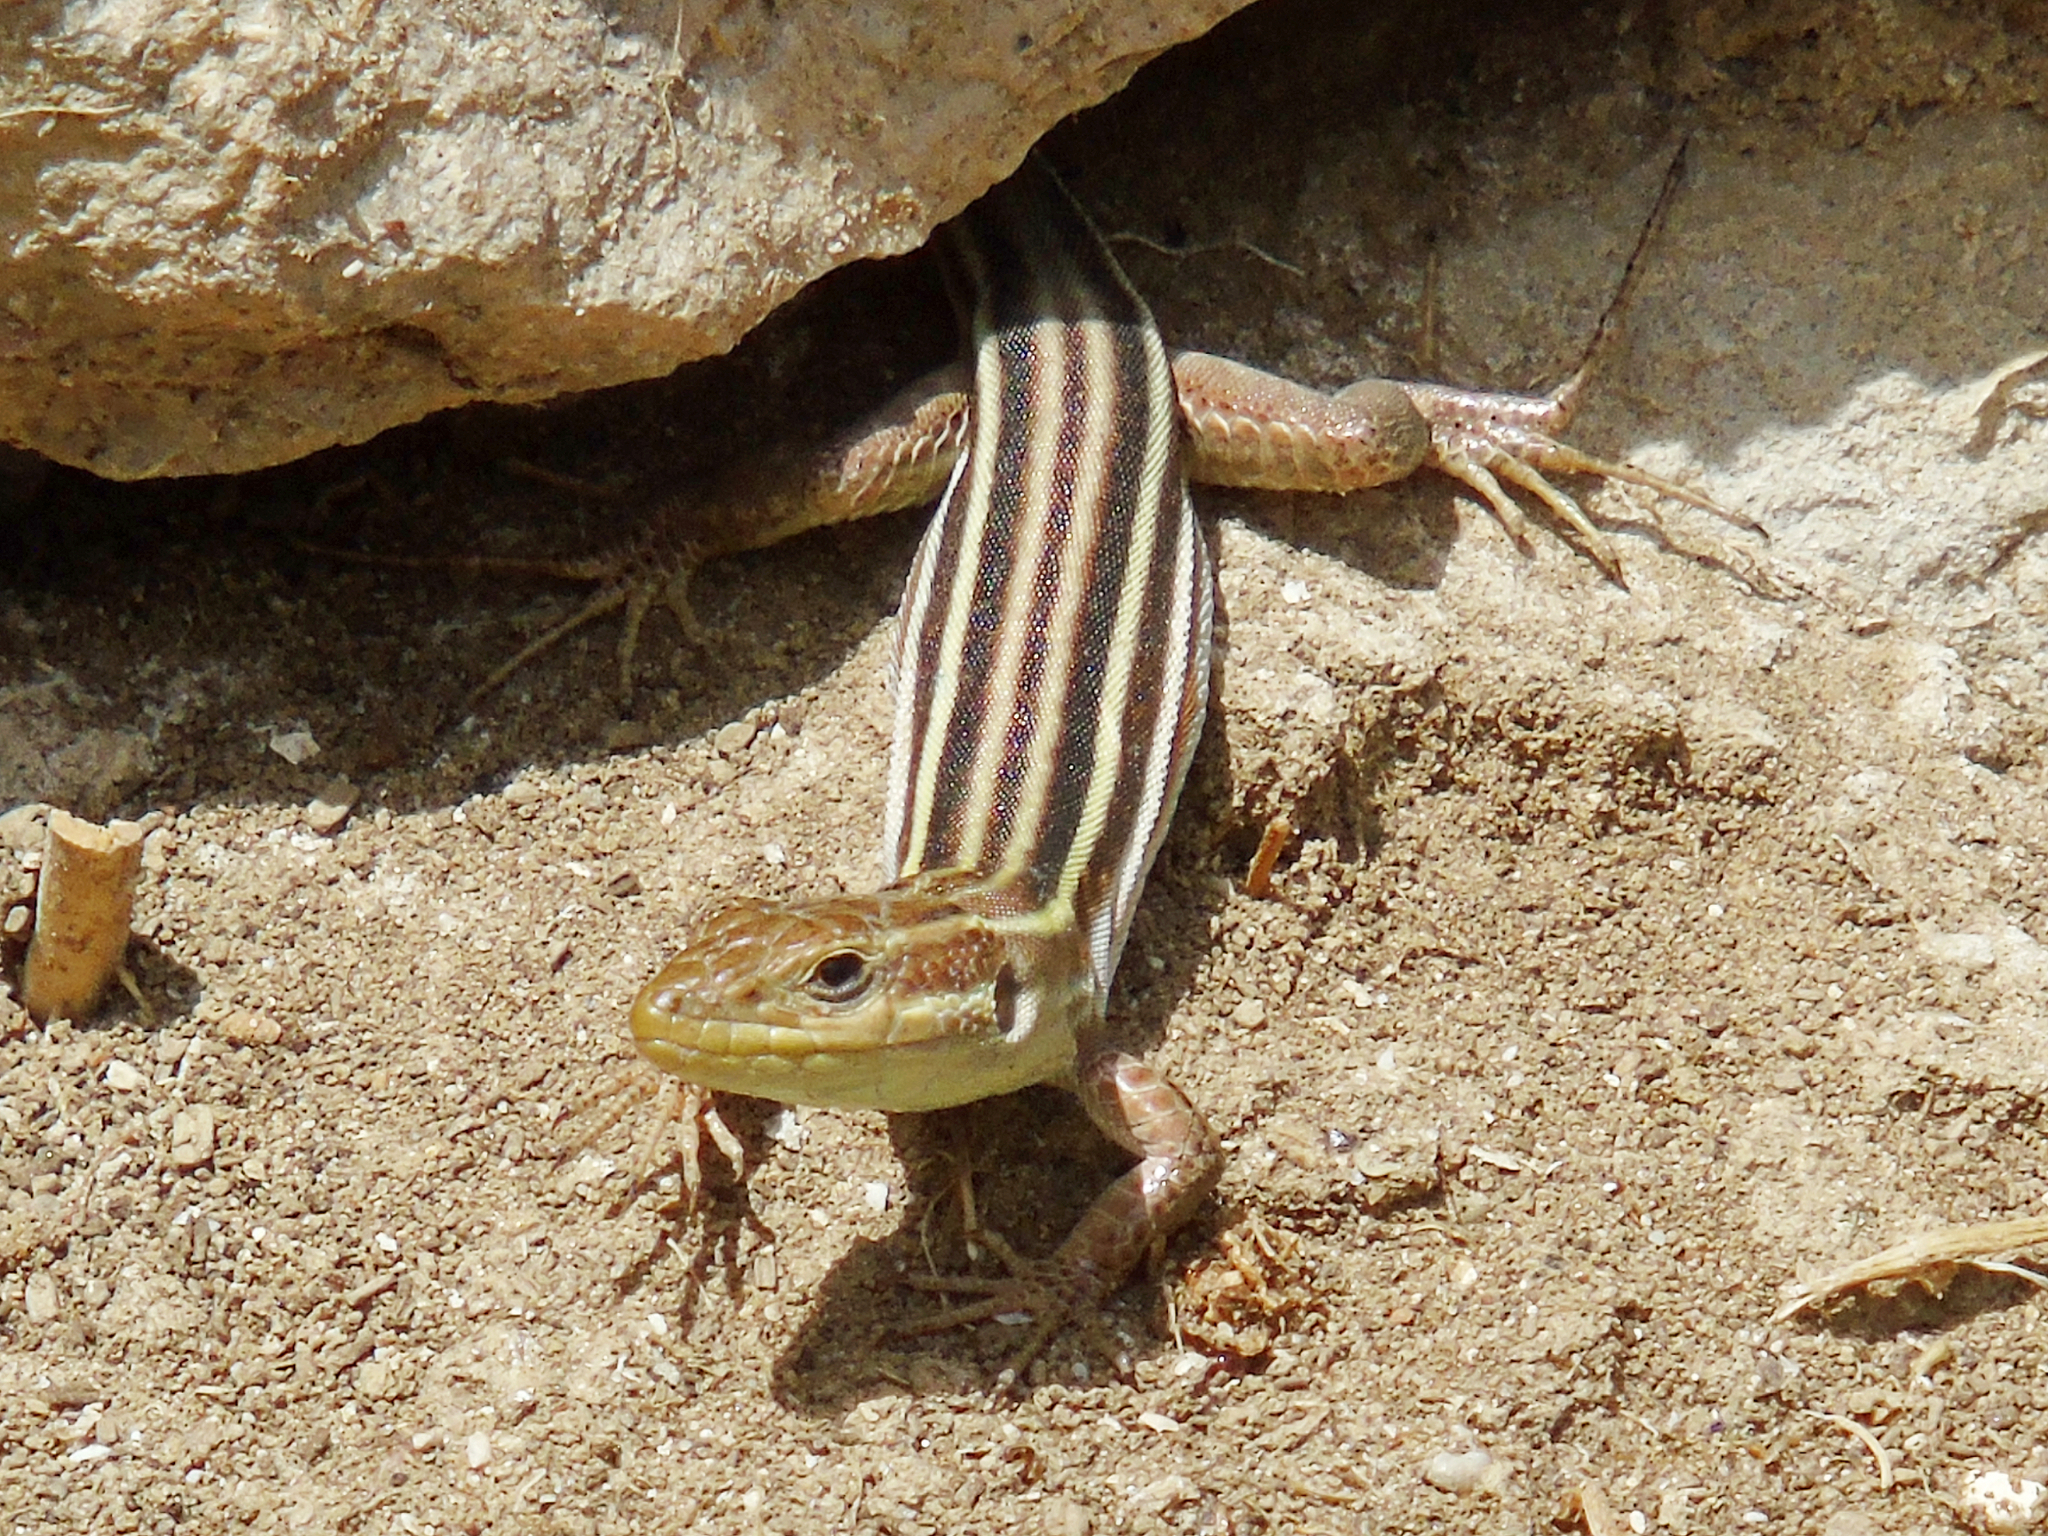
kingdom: Animalia
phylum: Chordata
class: Squamata
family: Lacertidae
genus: Podarcis
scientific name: Podarcis peloponnesiacus
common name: Peloponnese wall lizard
